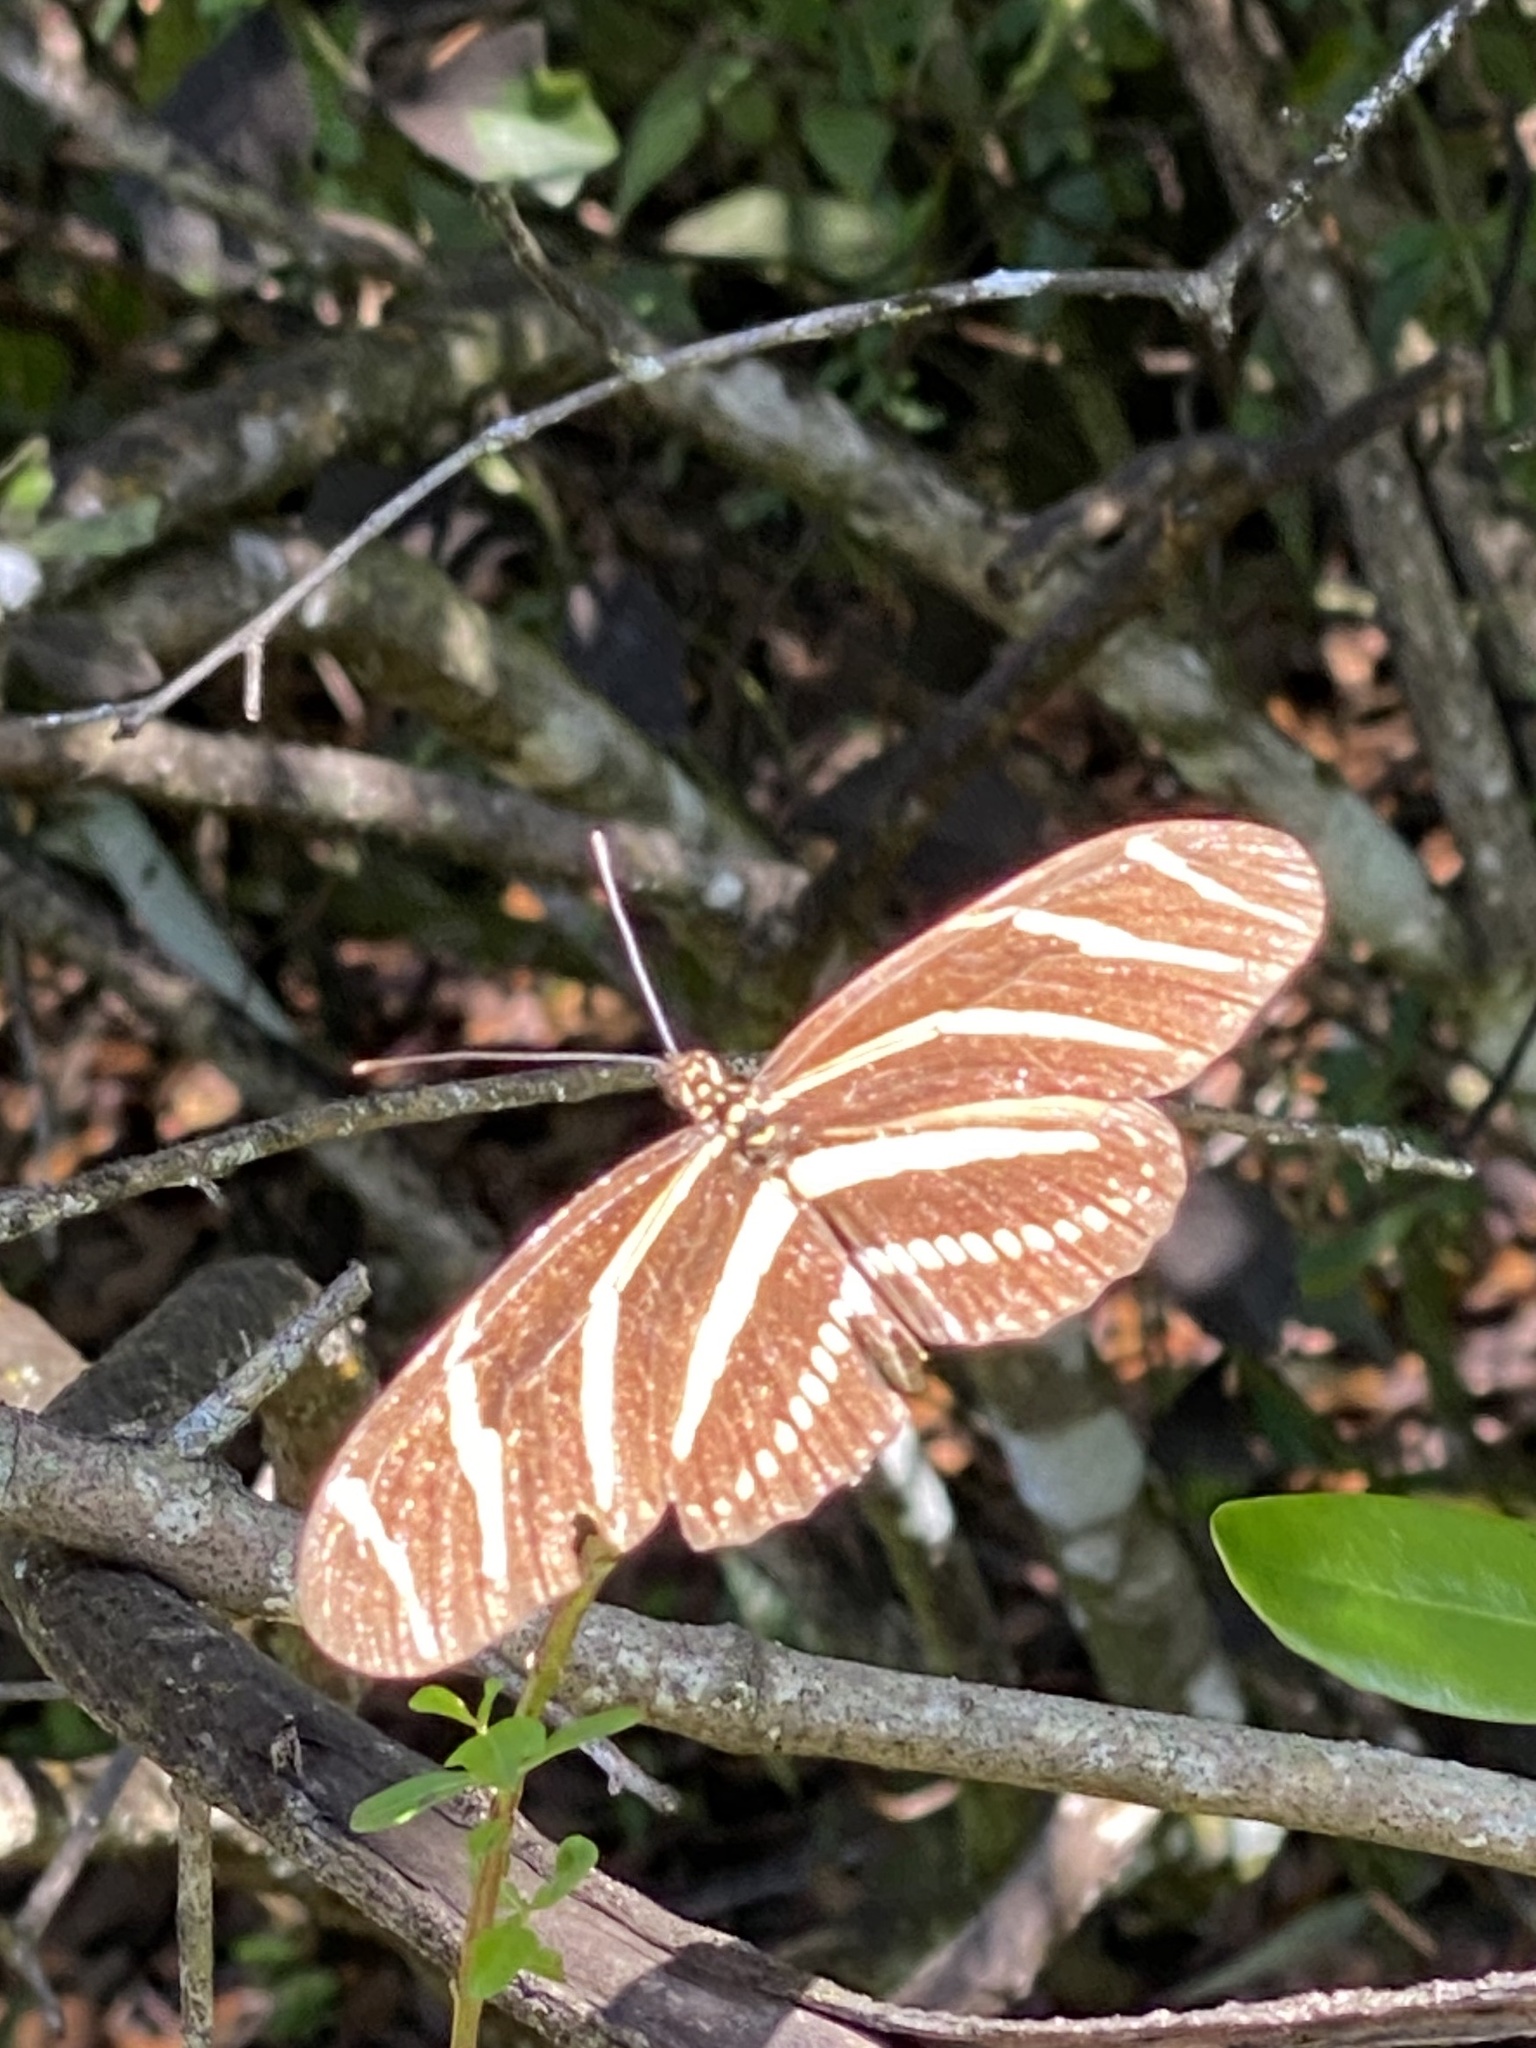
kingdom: Animalia
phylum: Arthropoda
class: Insecta
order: Lepidoptera
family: Nymphalidae
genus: Heliconius
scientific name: Heliconius charithonia
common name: Zebra long wing
